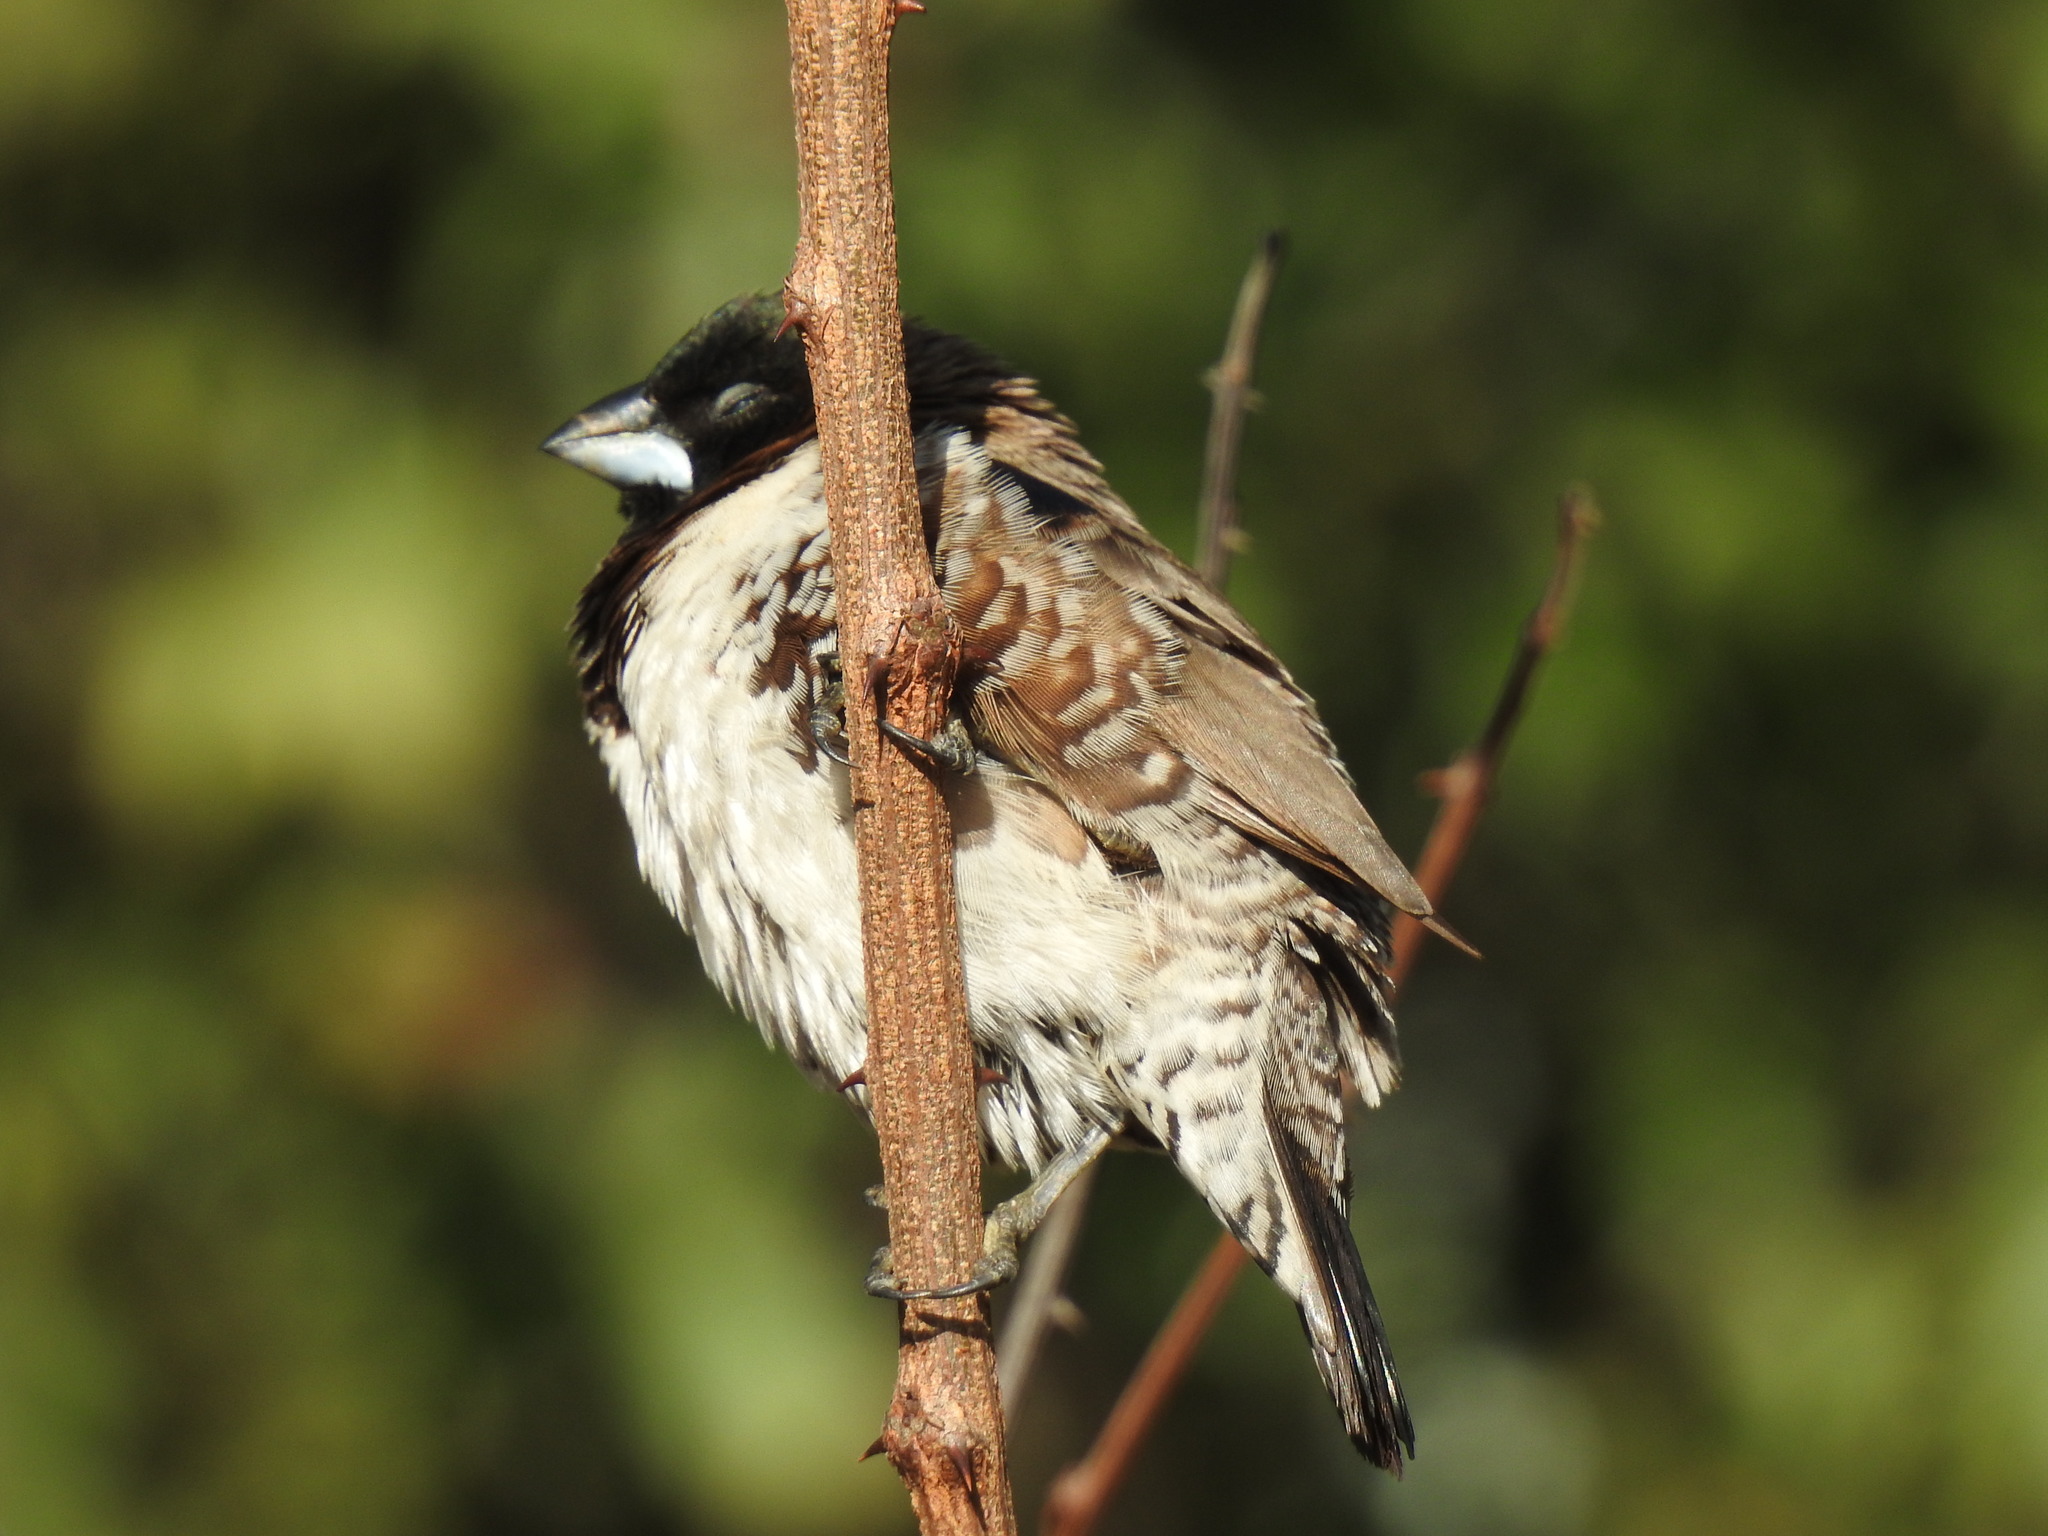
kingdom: Animalia
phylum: Chordata
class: Aves
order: Passeriformes
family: Estrildidae
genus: Lonchura
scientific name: Lonchura cucullata
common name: Bronze mannikin
